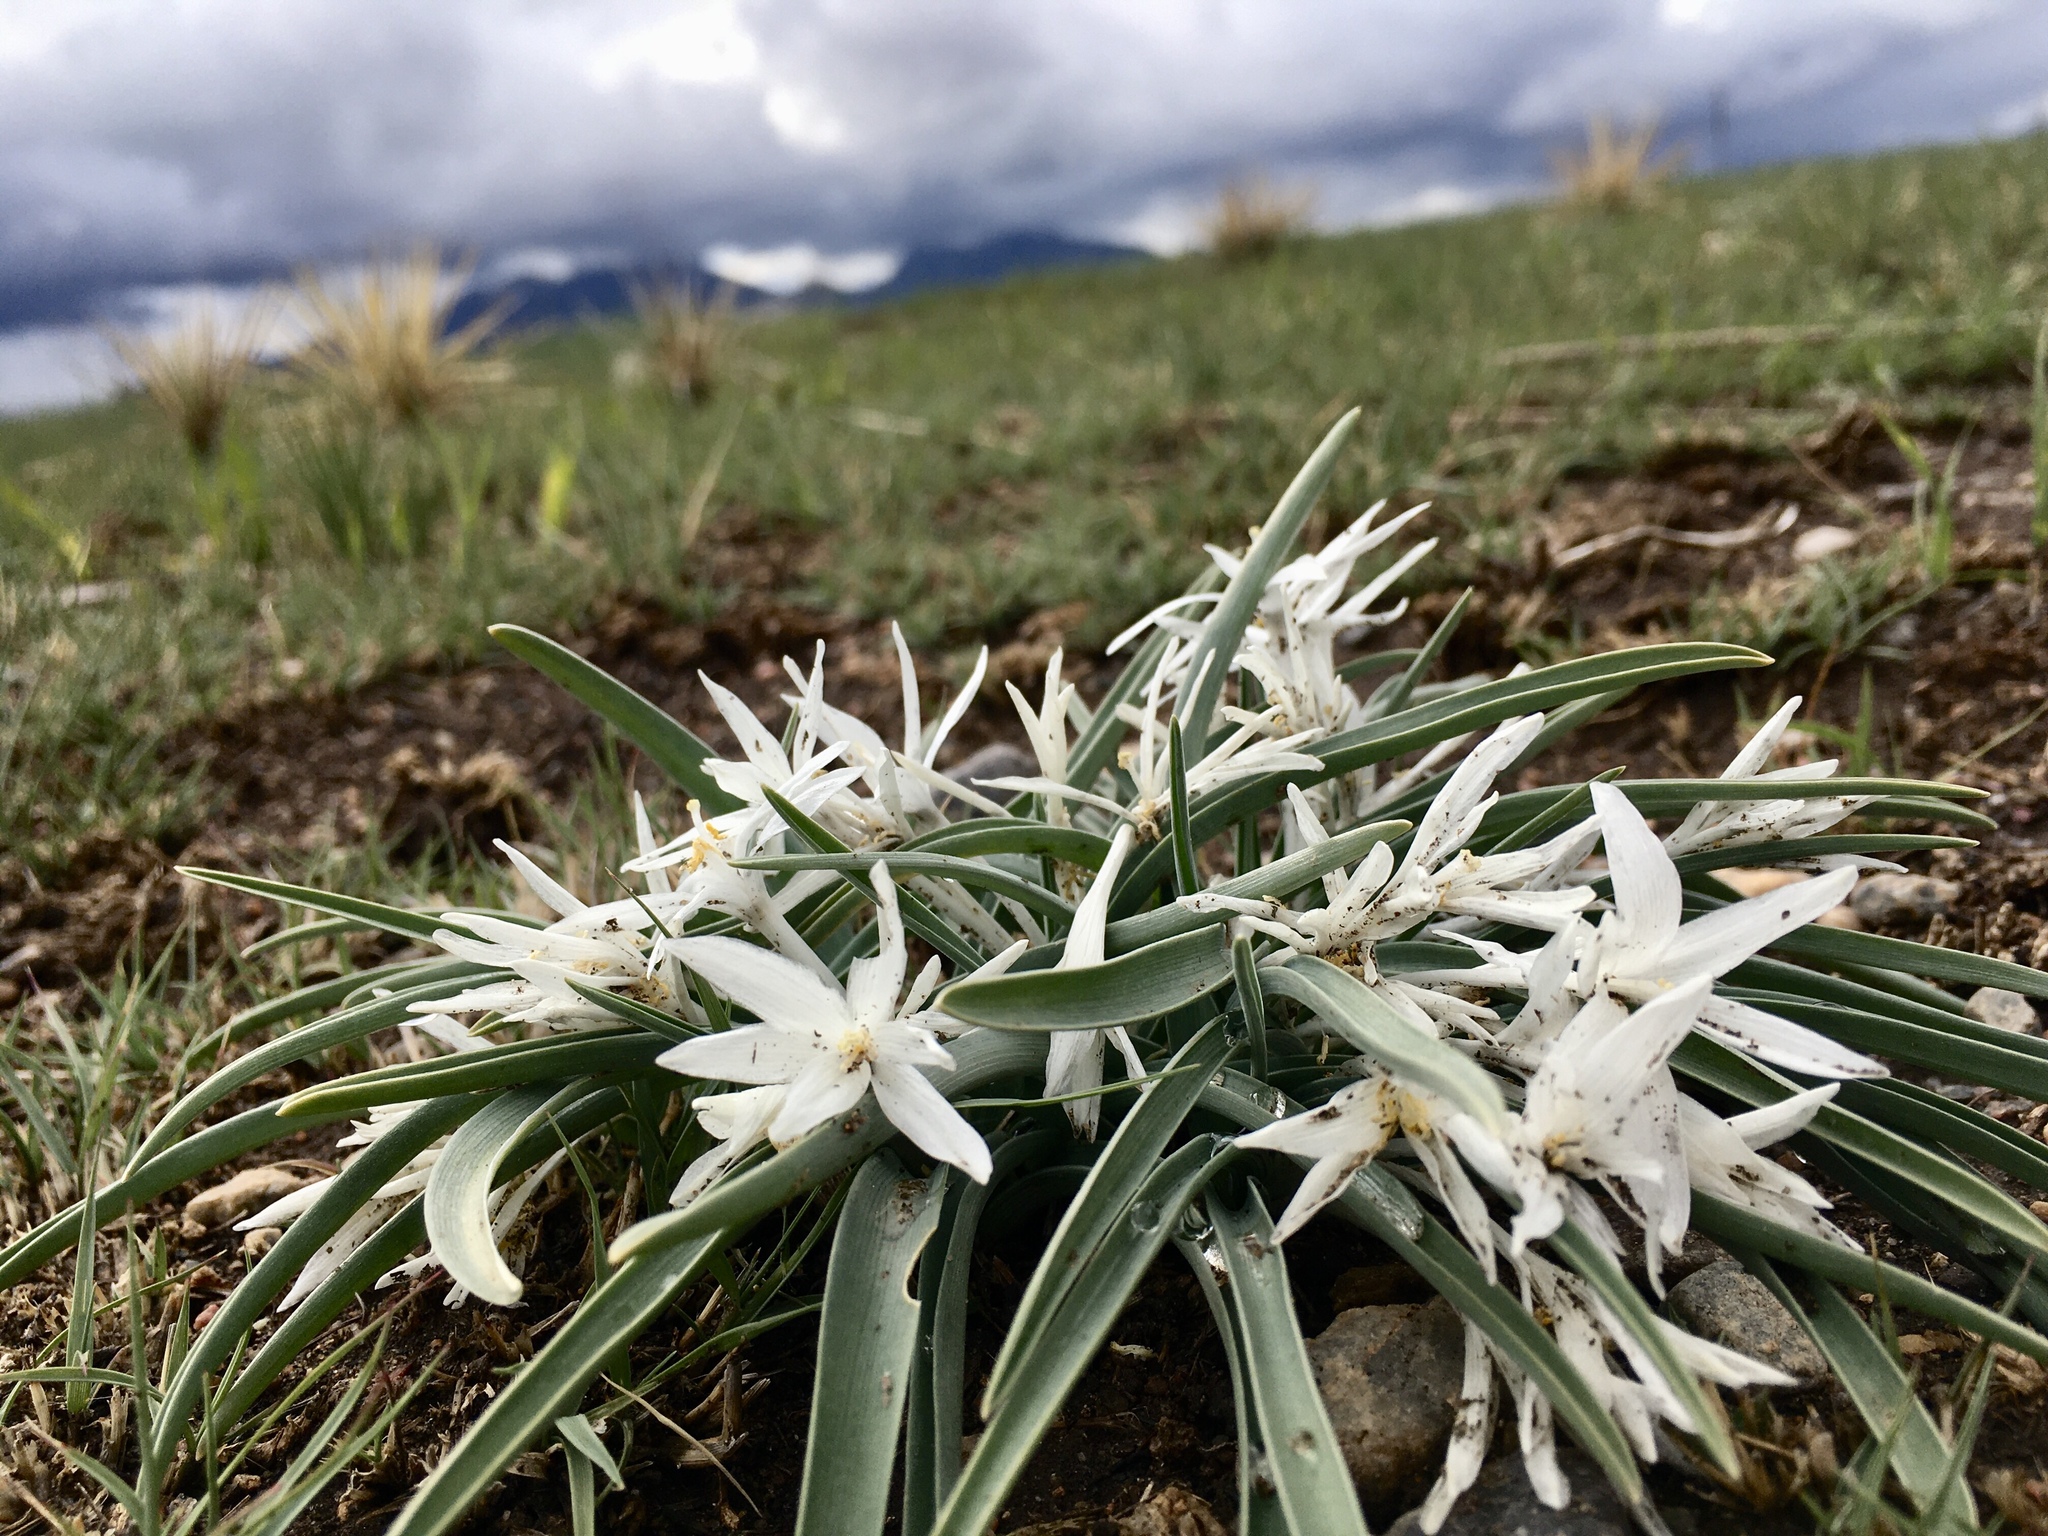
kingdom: Plantae
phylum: Tracheophyta
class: Liliopsida
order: Asparagales
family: Asparagaceae
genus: Leucocrinum
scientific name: Leucocrinum montanum
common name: Mountain-lily
